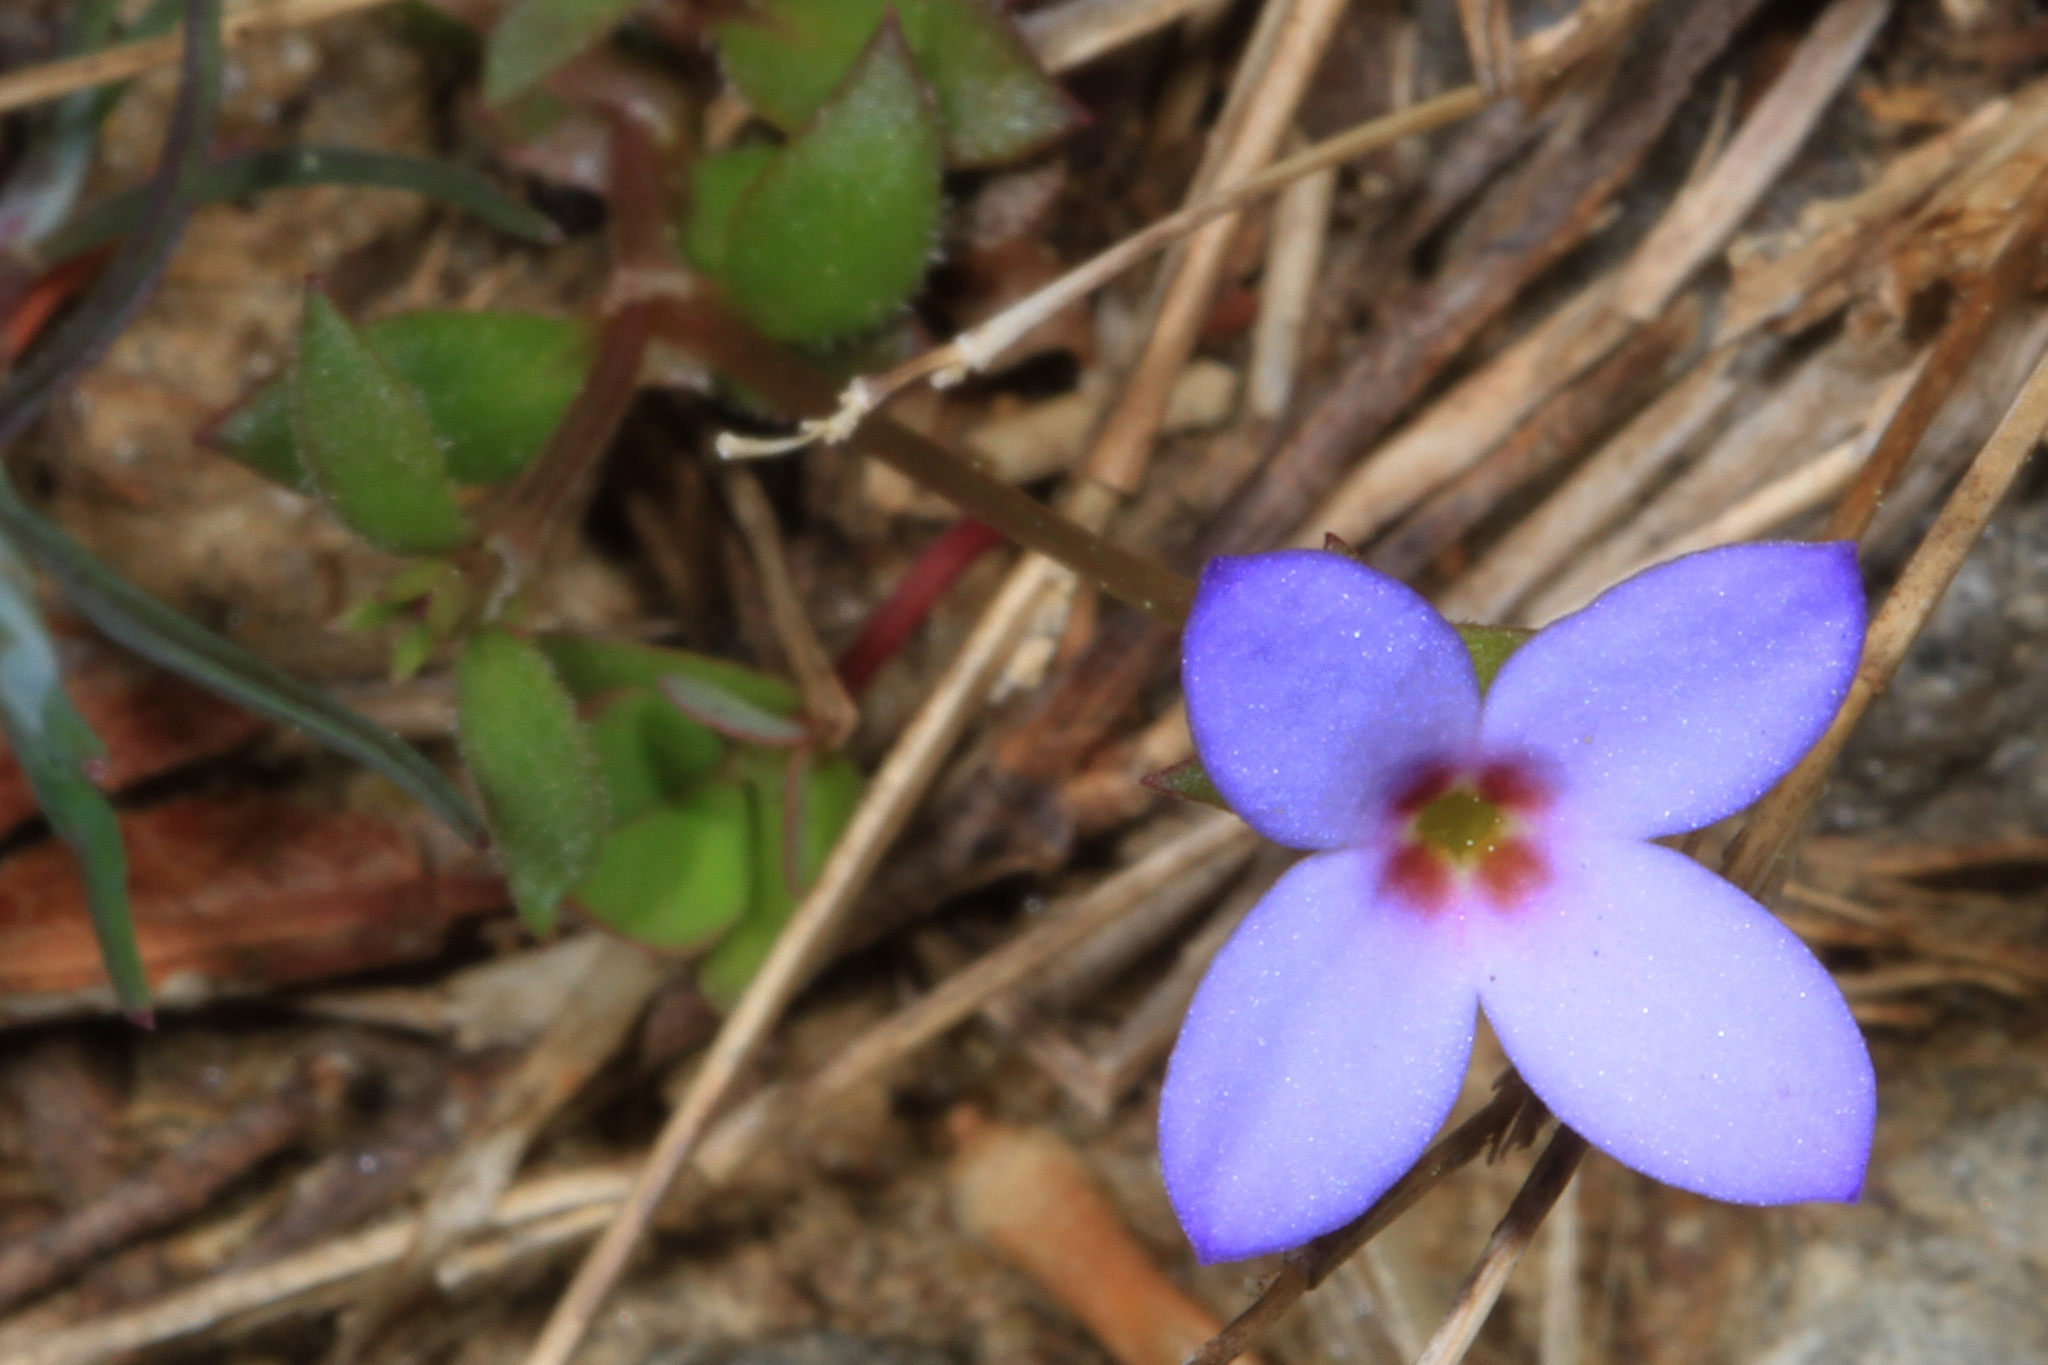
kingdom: Plantae
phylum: Tracheophyta
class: Magnoliopsida
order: Gentianales
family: Rubiaceae
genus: Houstonia
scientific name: Houstonia pusilla
